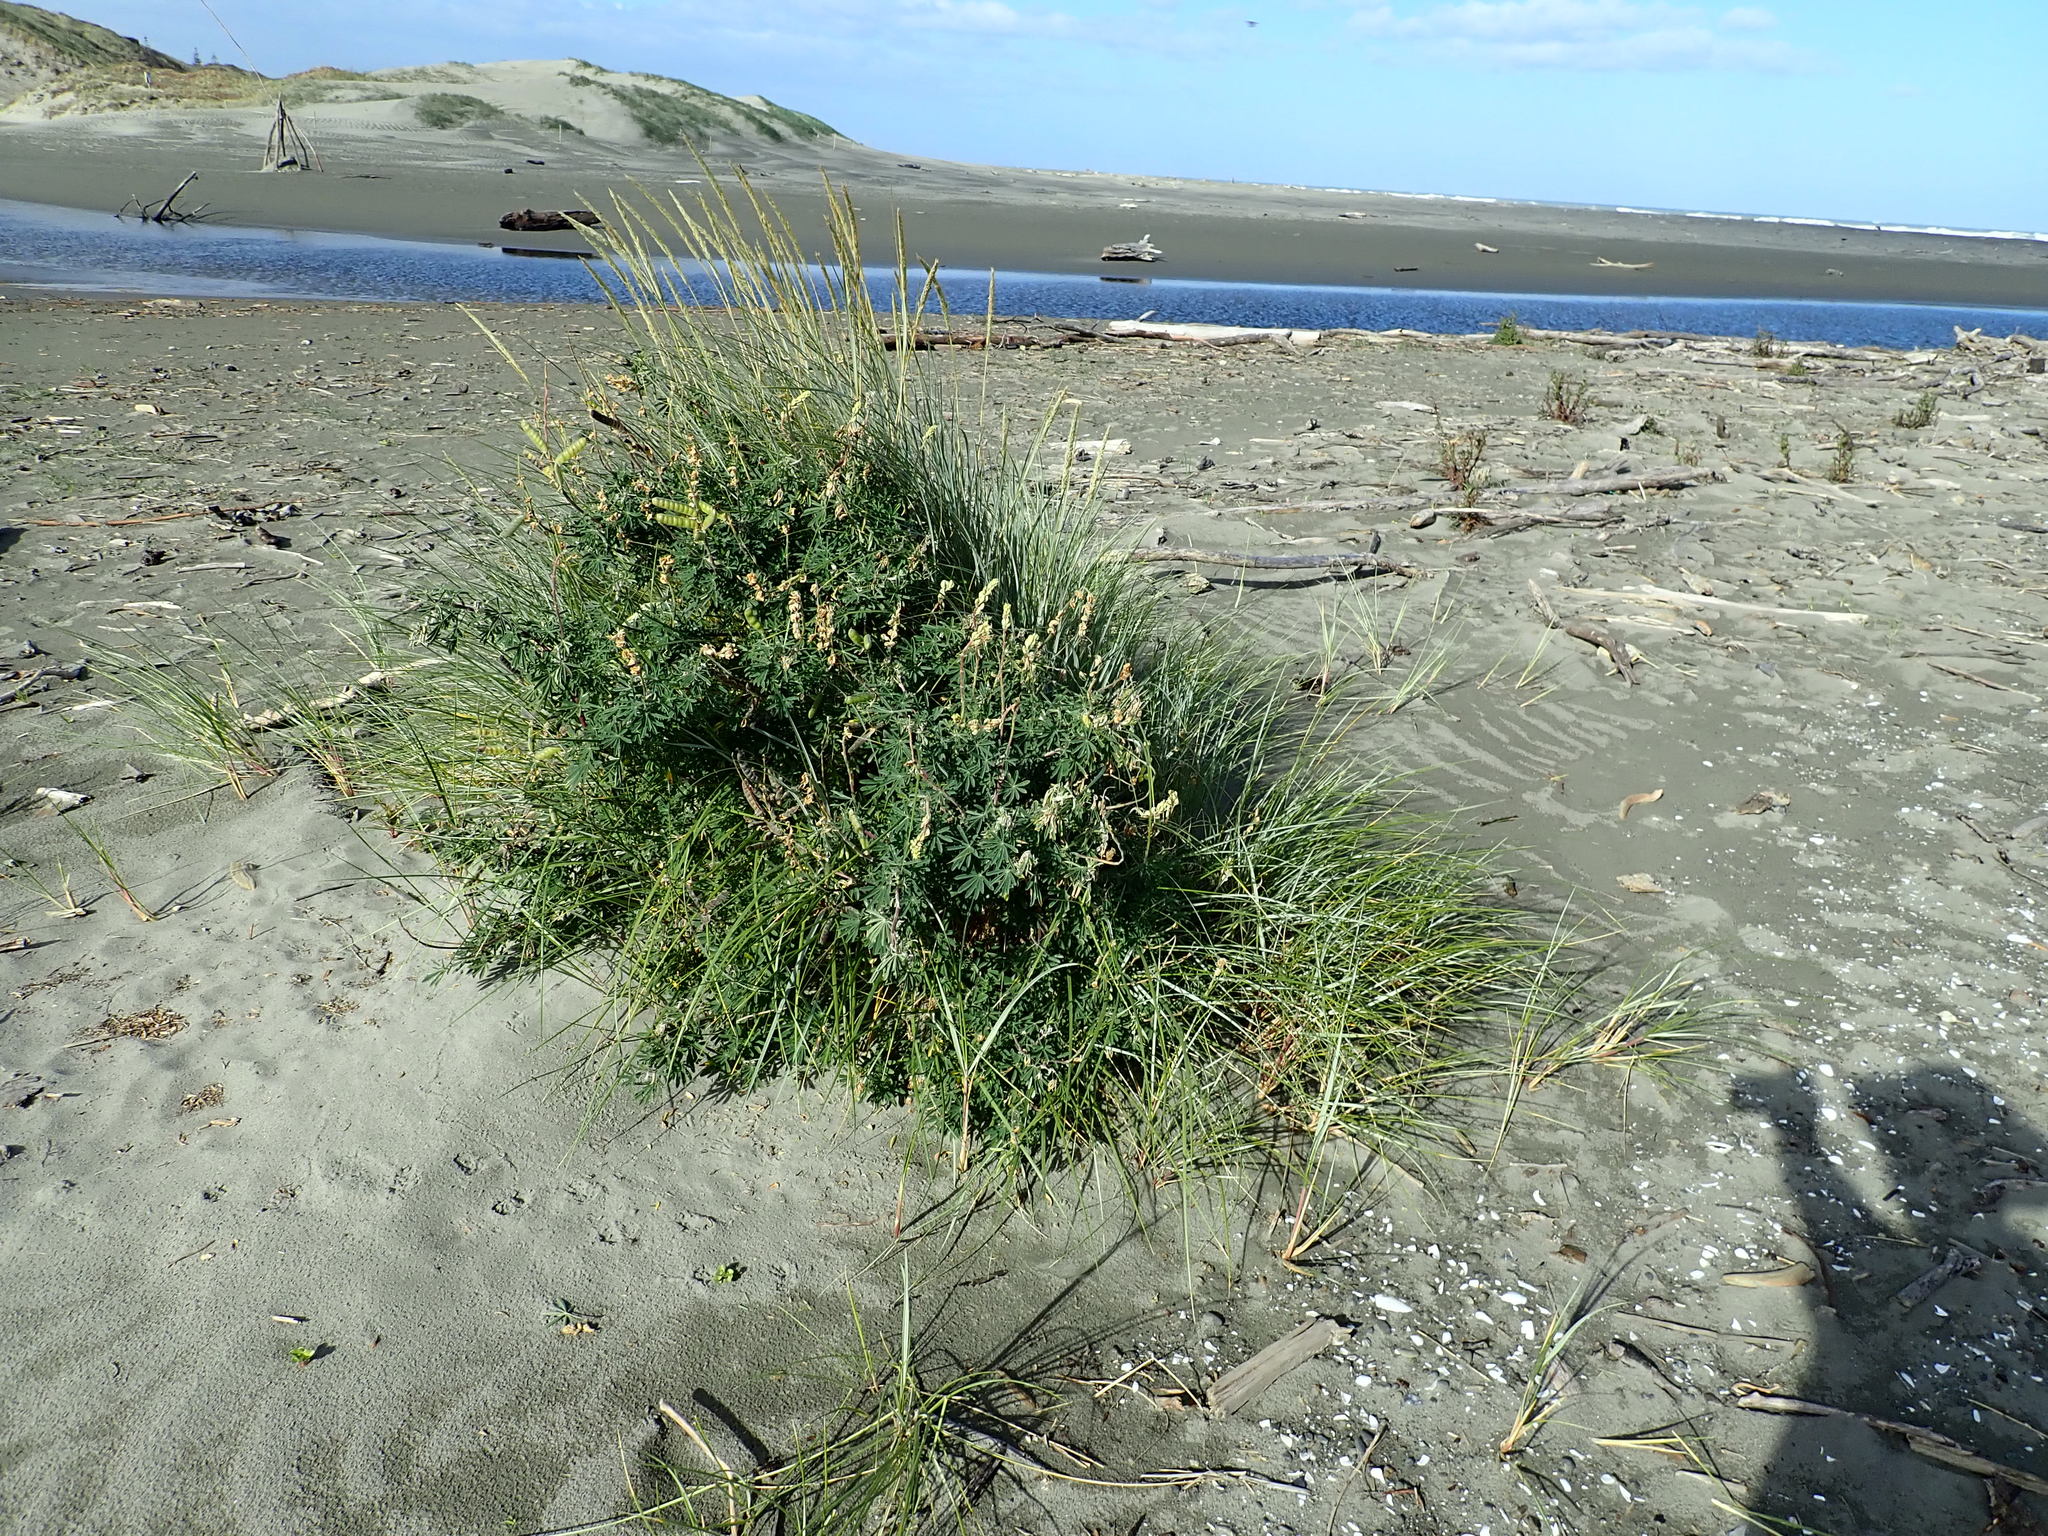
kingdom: Plantae
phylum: Tracheophyta
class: Liliopsida
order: Poales
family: Poaceae
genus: Calamagrostis
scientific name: Calamagrostis arenaria
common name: European beachgrass
